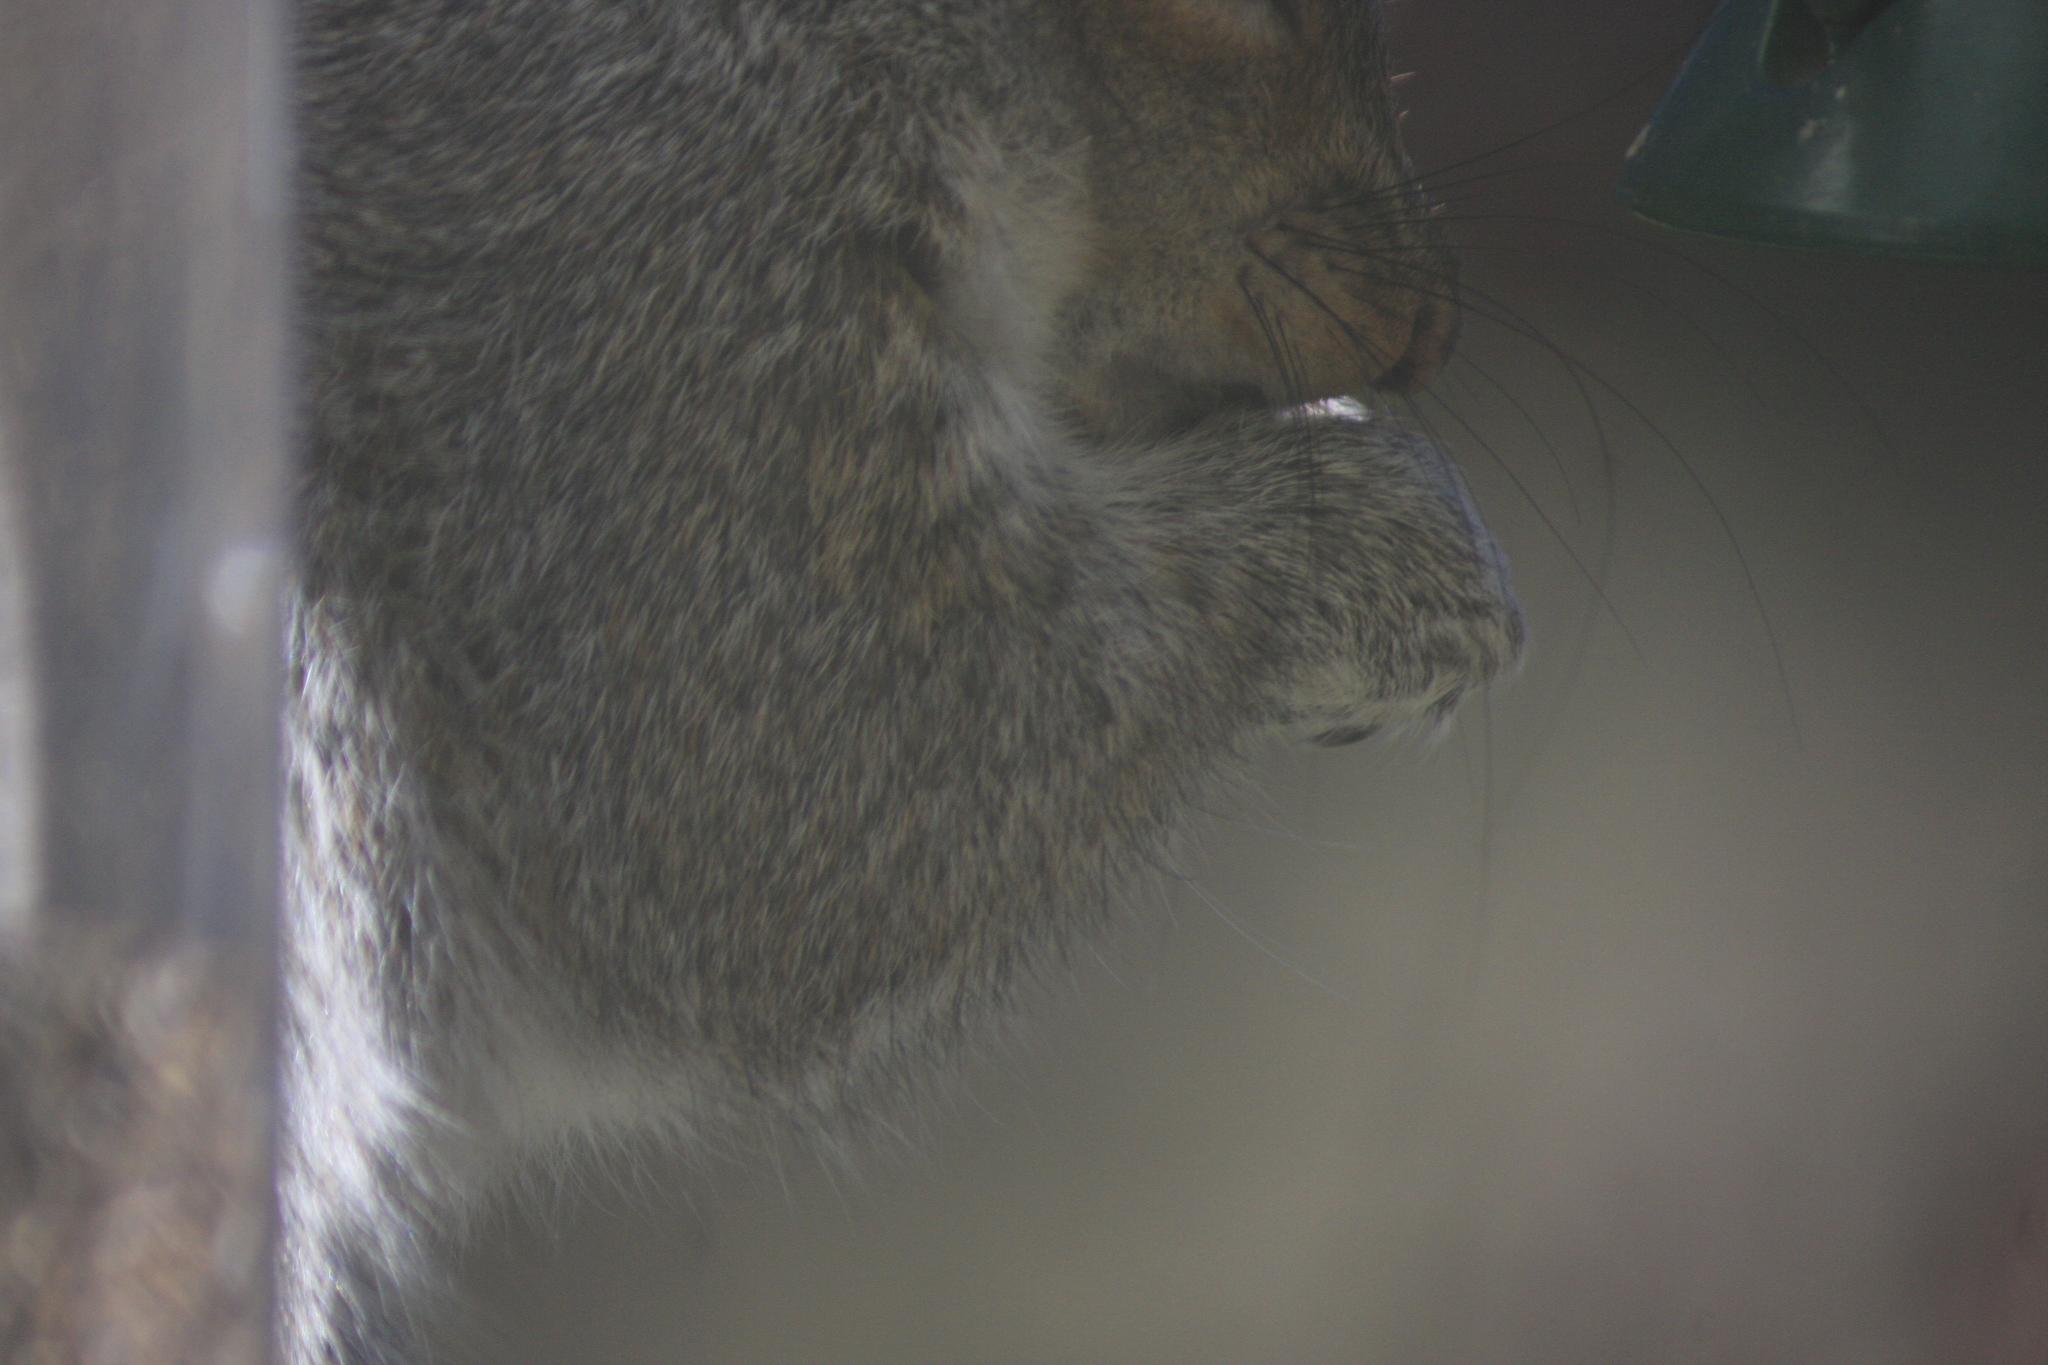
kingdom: Animalia
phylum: Chordata
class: Mammalia
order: Rodentia
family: Sciuridae
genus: Sciurus
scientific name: Sciurus carolinensis
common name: Eastern gray squirrel
